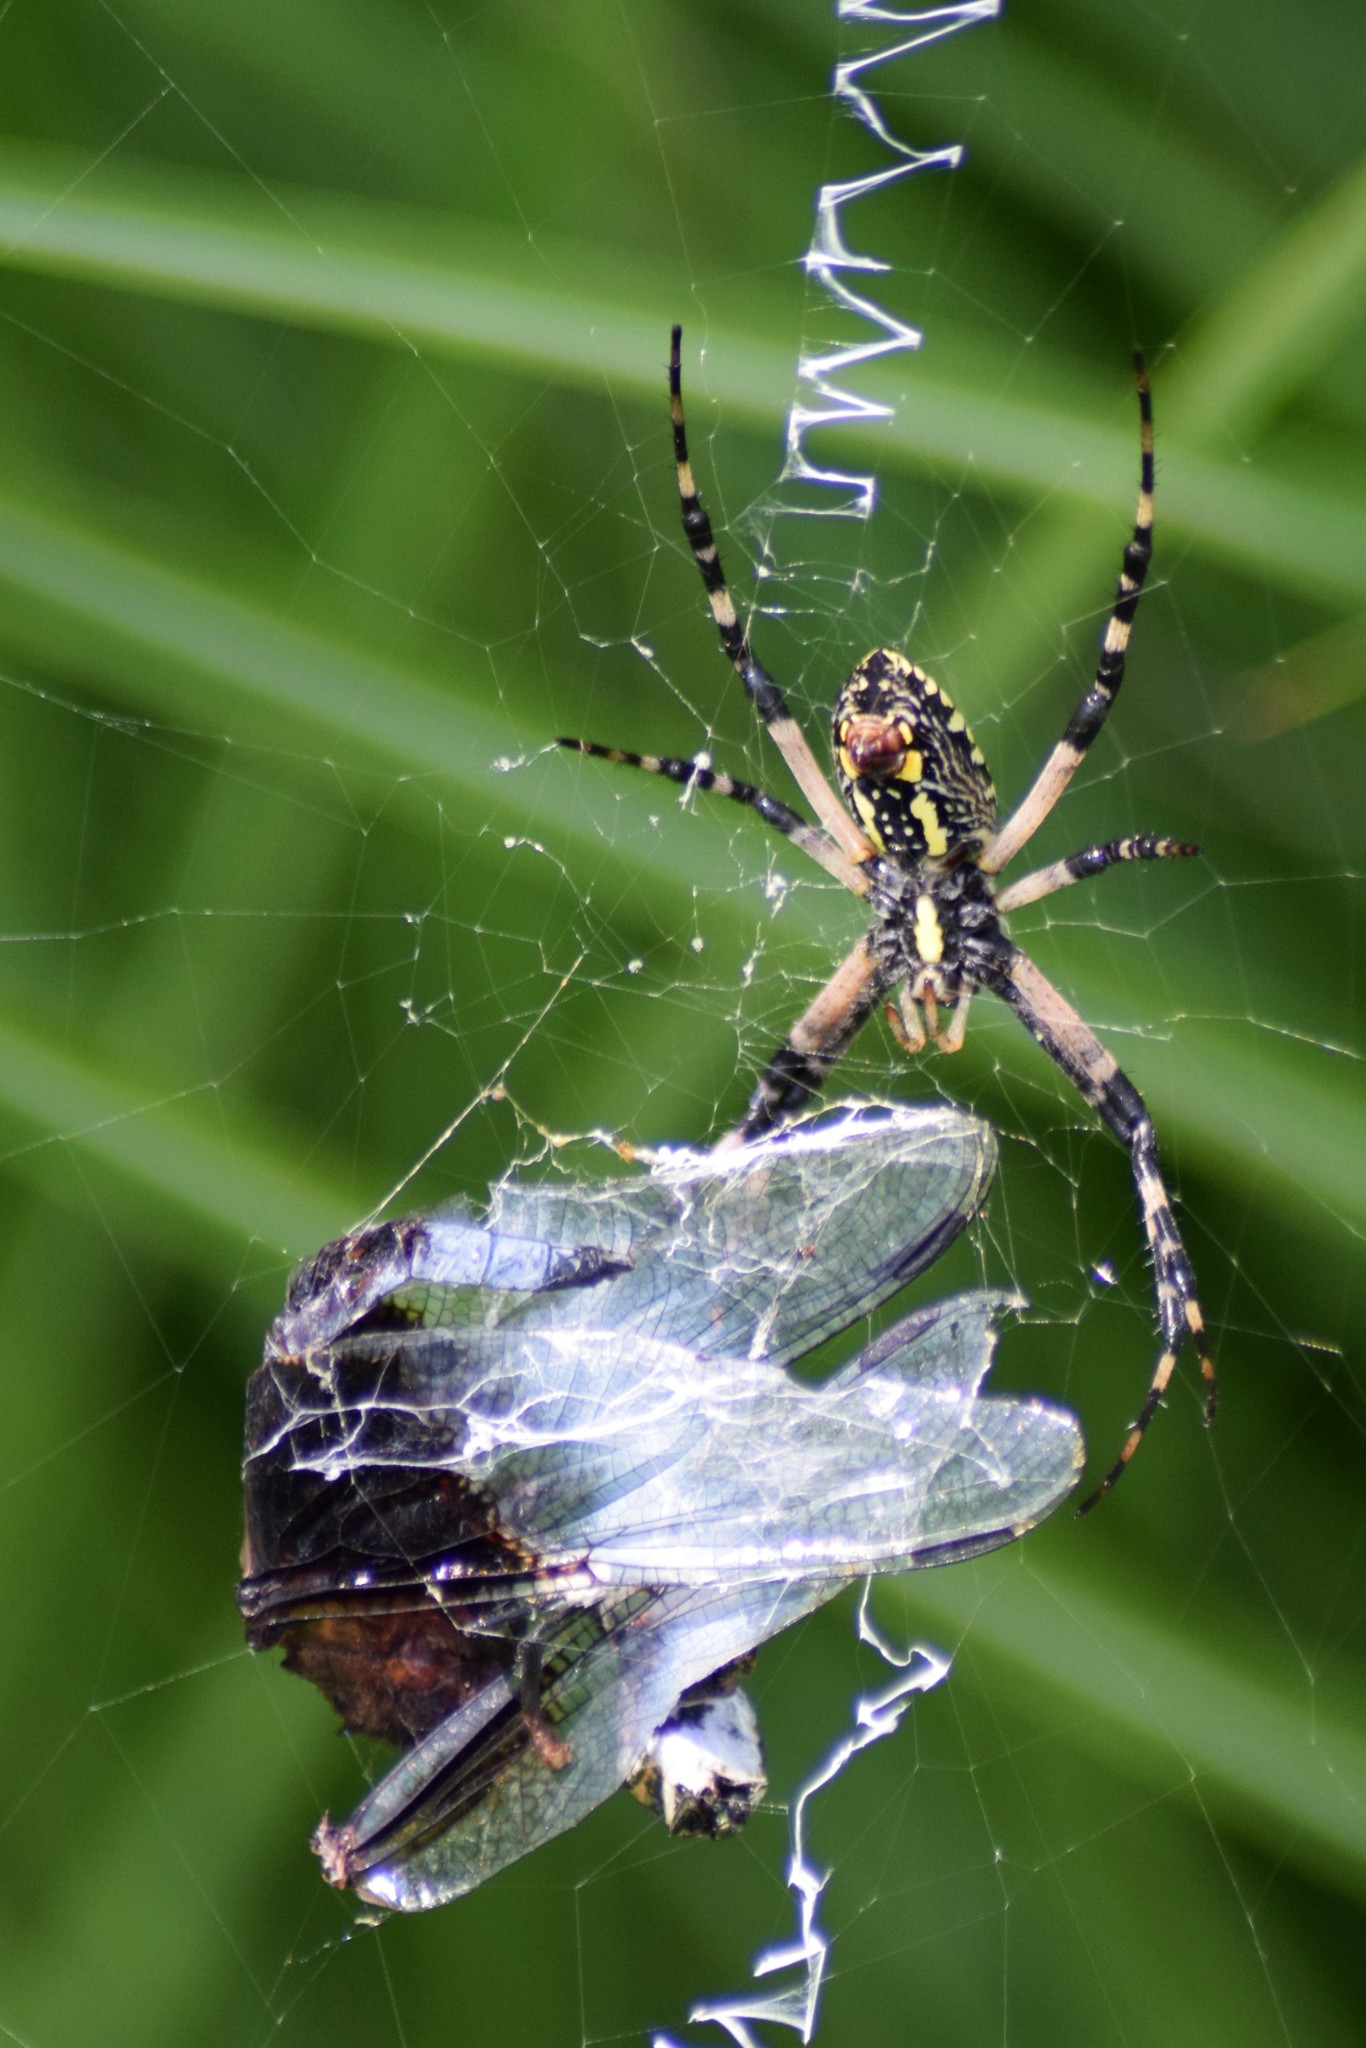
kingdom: Animalia
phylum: Arthropoda
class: Arachnida
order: Araneae
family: Araneidae
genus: Argiope
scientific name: Argiope aurantia
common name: Orb weavers
